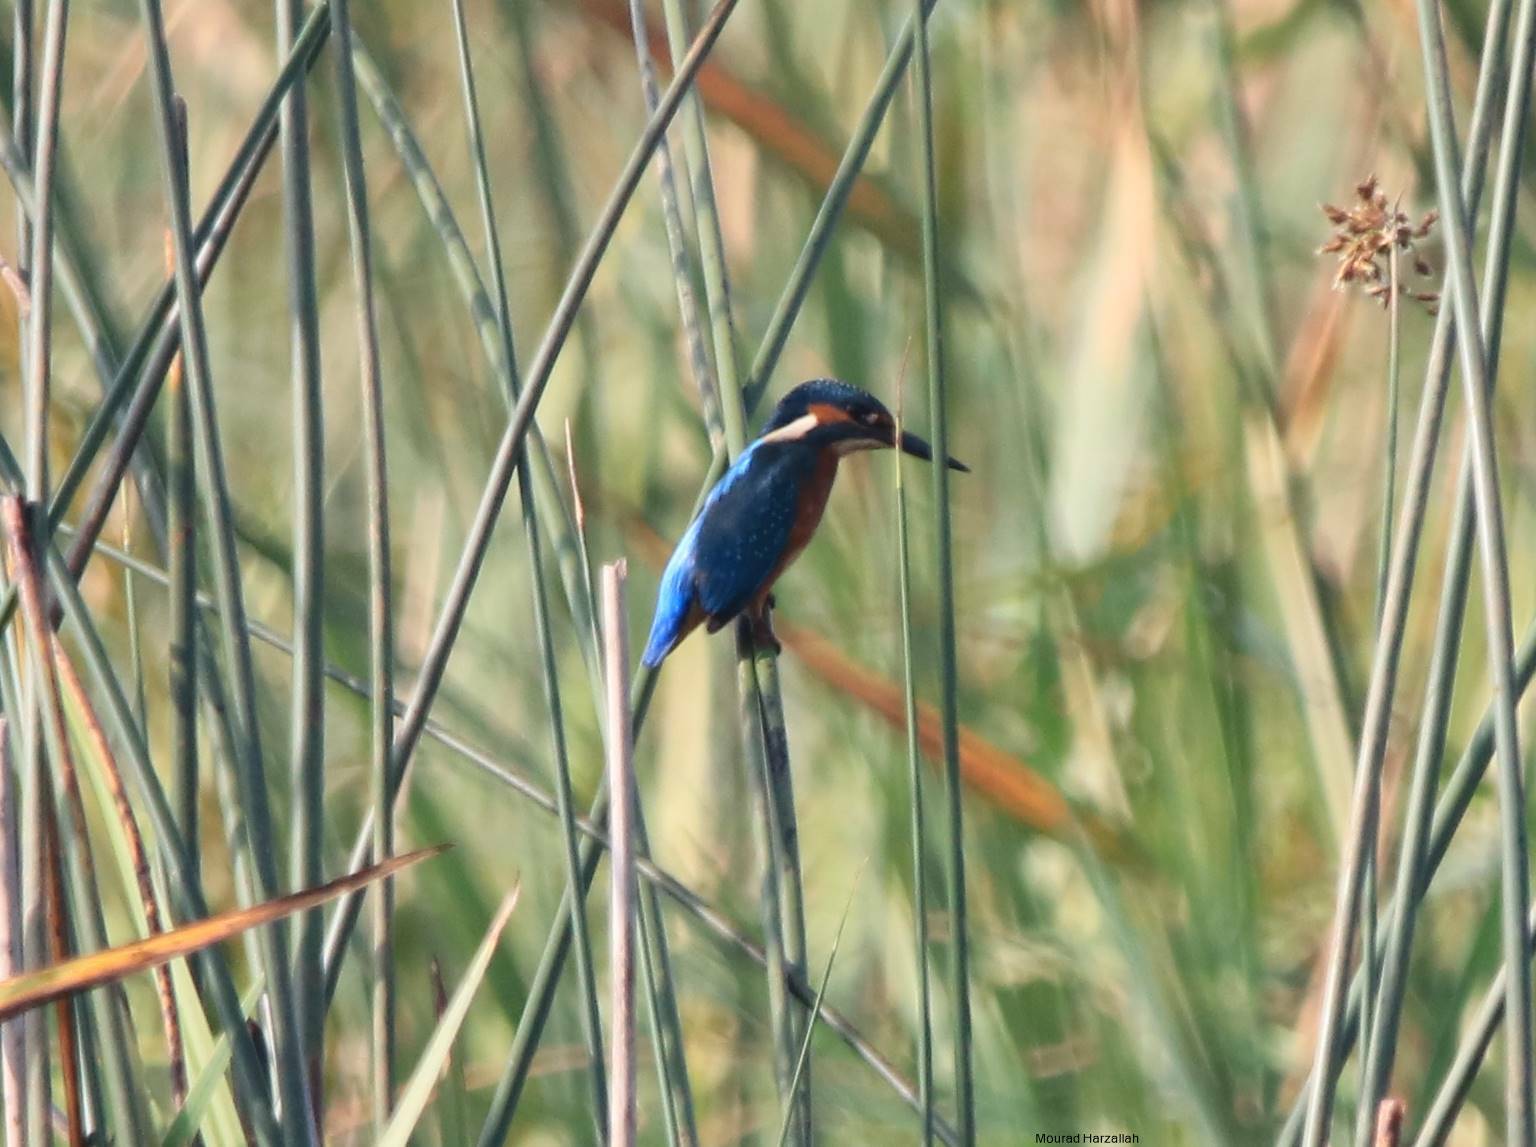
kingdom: Animalia
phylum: Chordata
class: Aves
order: Coraciiformes
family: Alcedinidae
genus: Alcedo
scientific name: Alcedo atthis
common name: Common kingfisher
